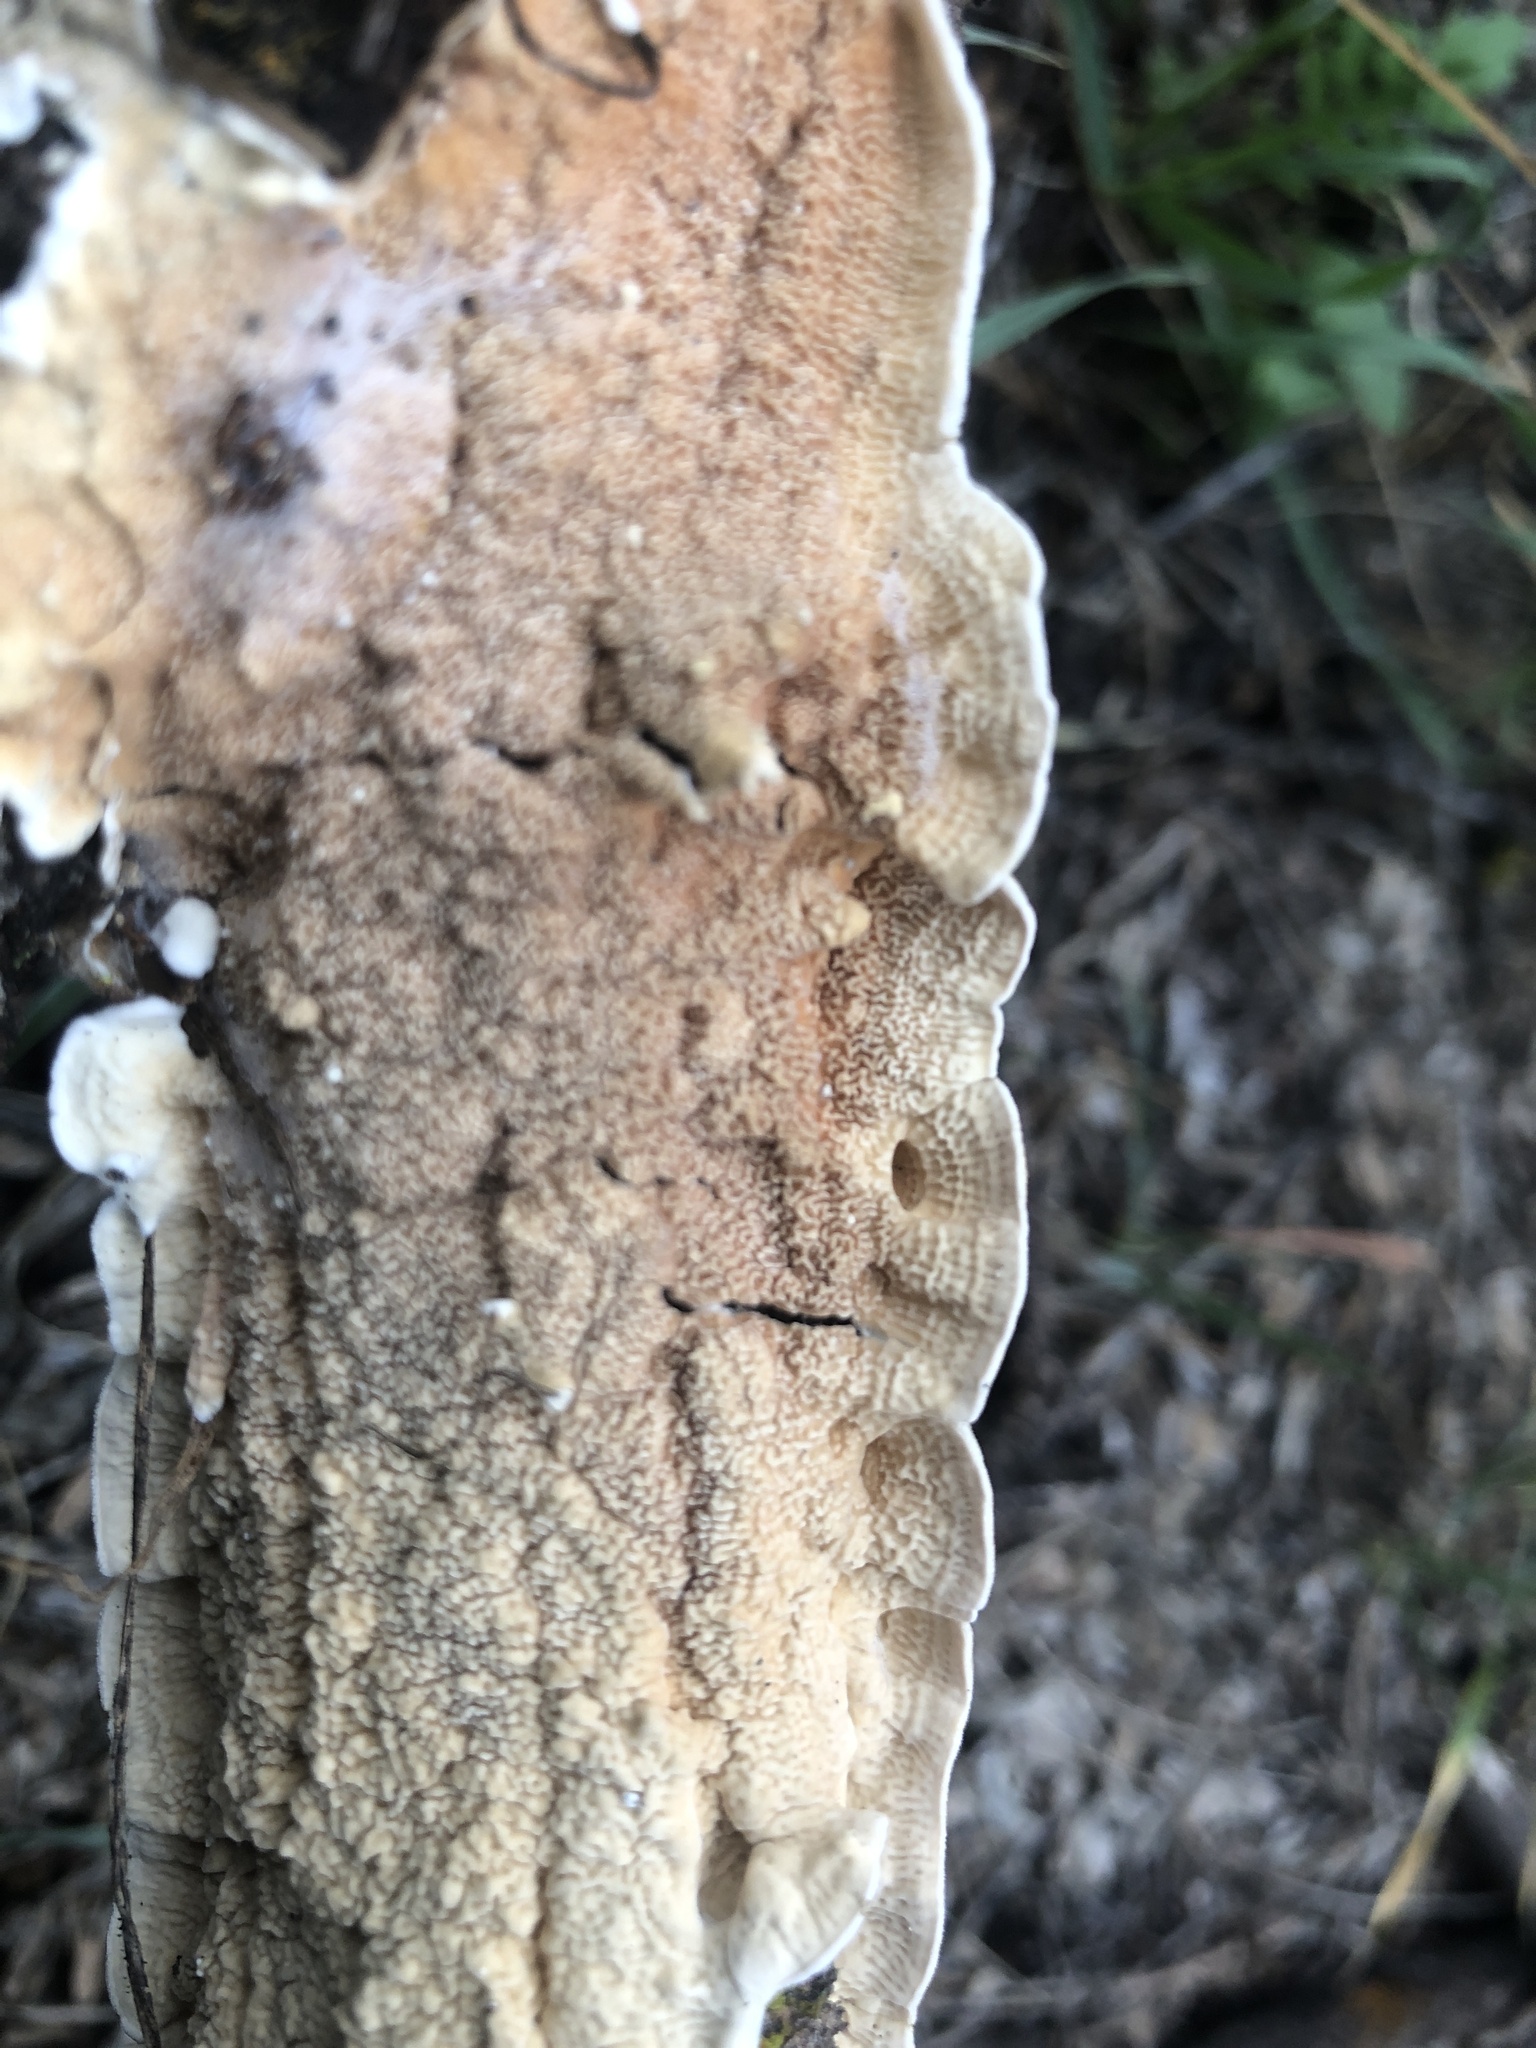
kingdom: Fungi
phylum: Basidiomycota
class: Agaricomycetes
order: Polyporales
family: Irpicaceae
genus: Byssomerulius
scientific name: Byssomerulius corium
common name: Netted crust
